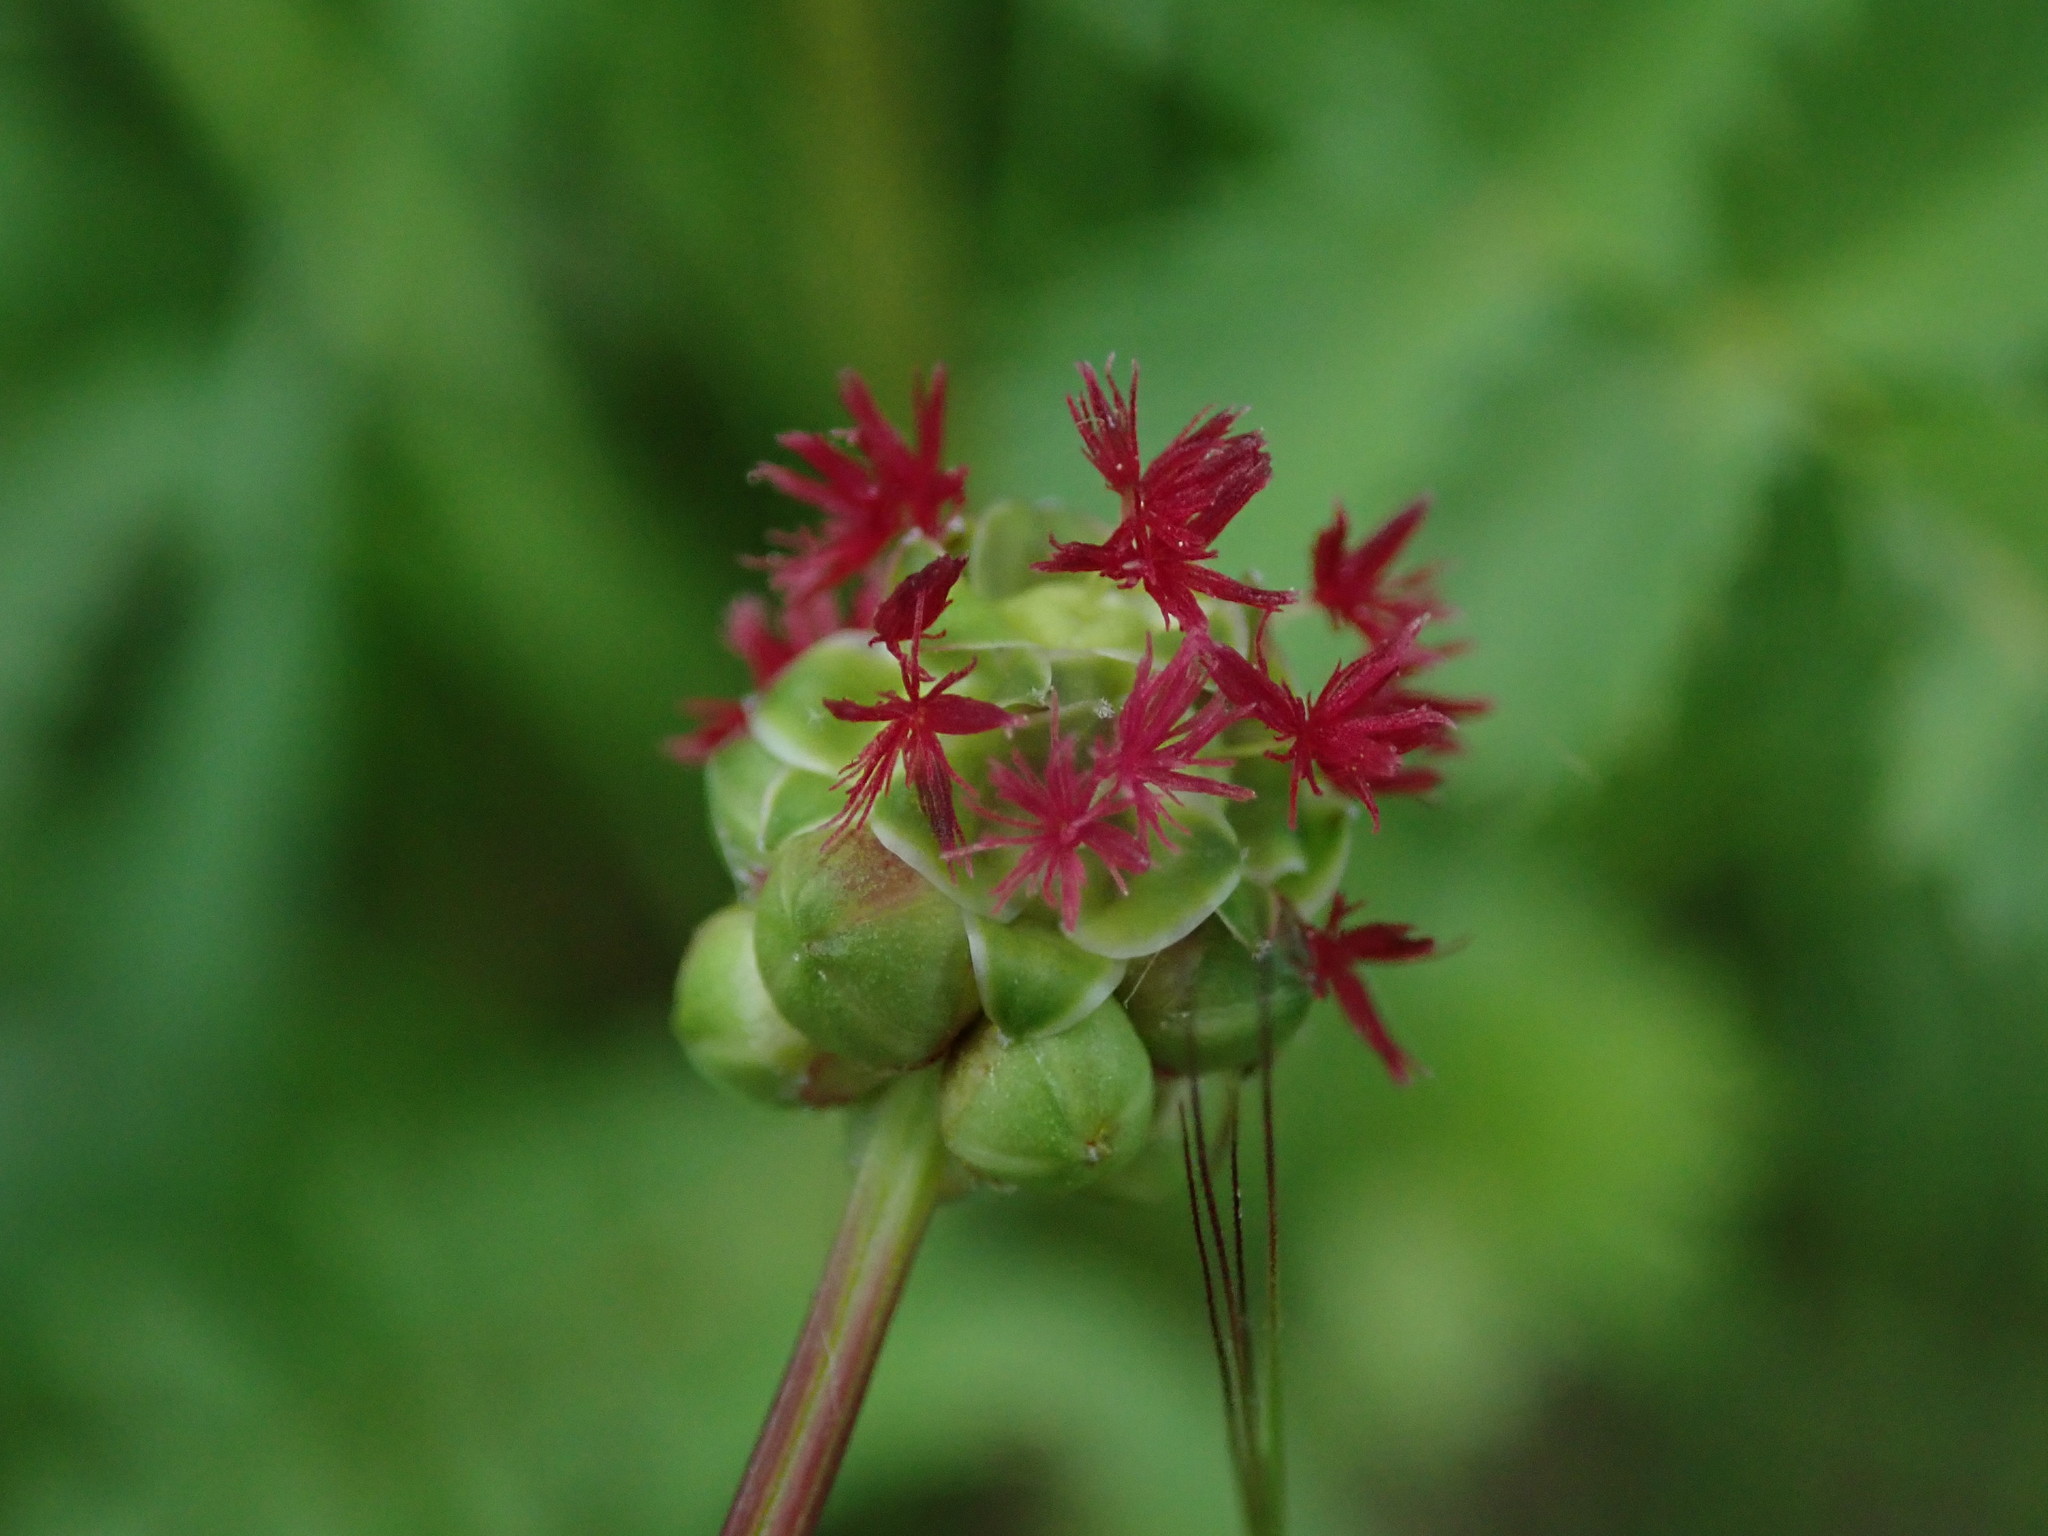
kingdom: Plantae
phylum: Tracheophyta
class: Magnoliopsida
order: Rosales
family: Rosaceae
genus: Poterium
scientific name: Poterium sanguisorba
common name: Salad burnet
